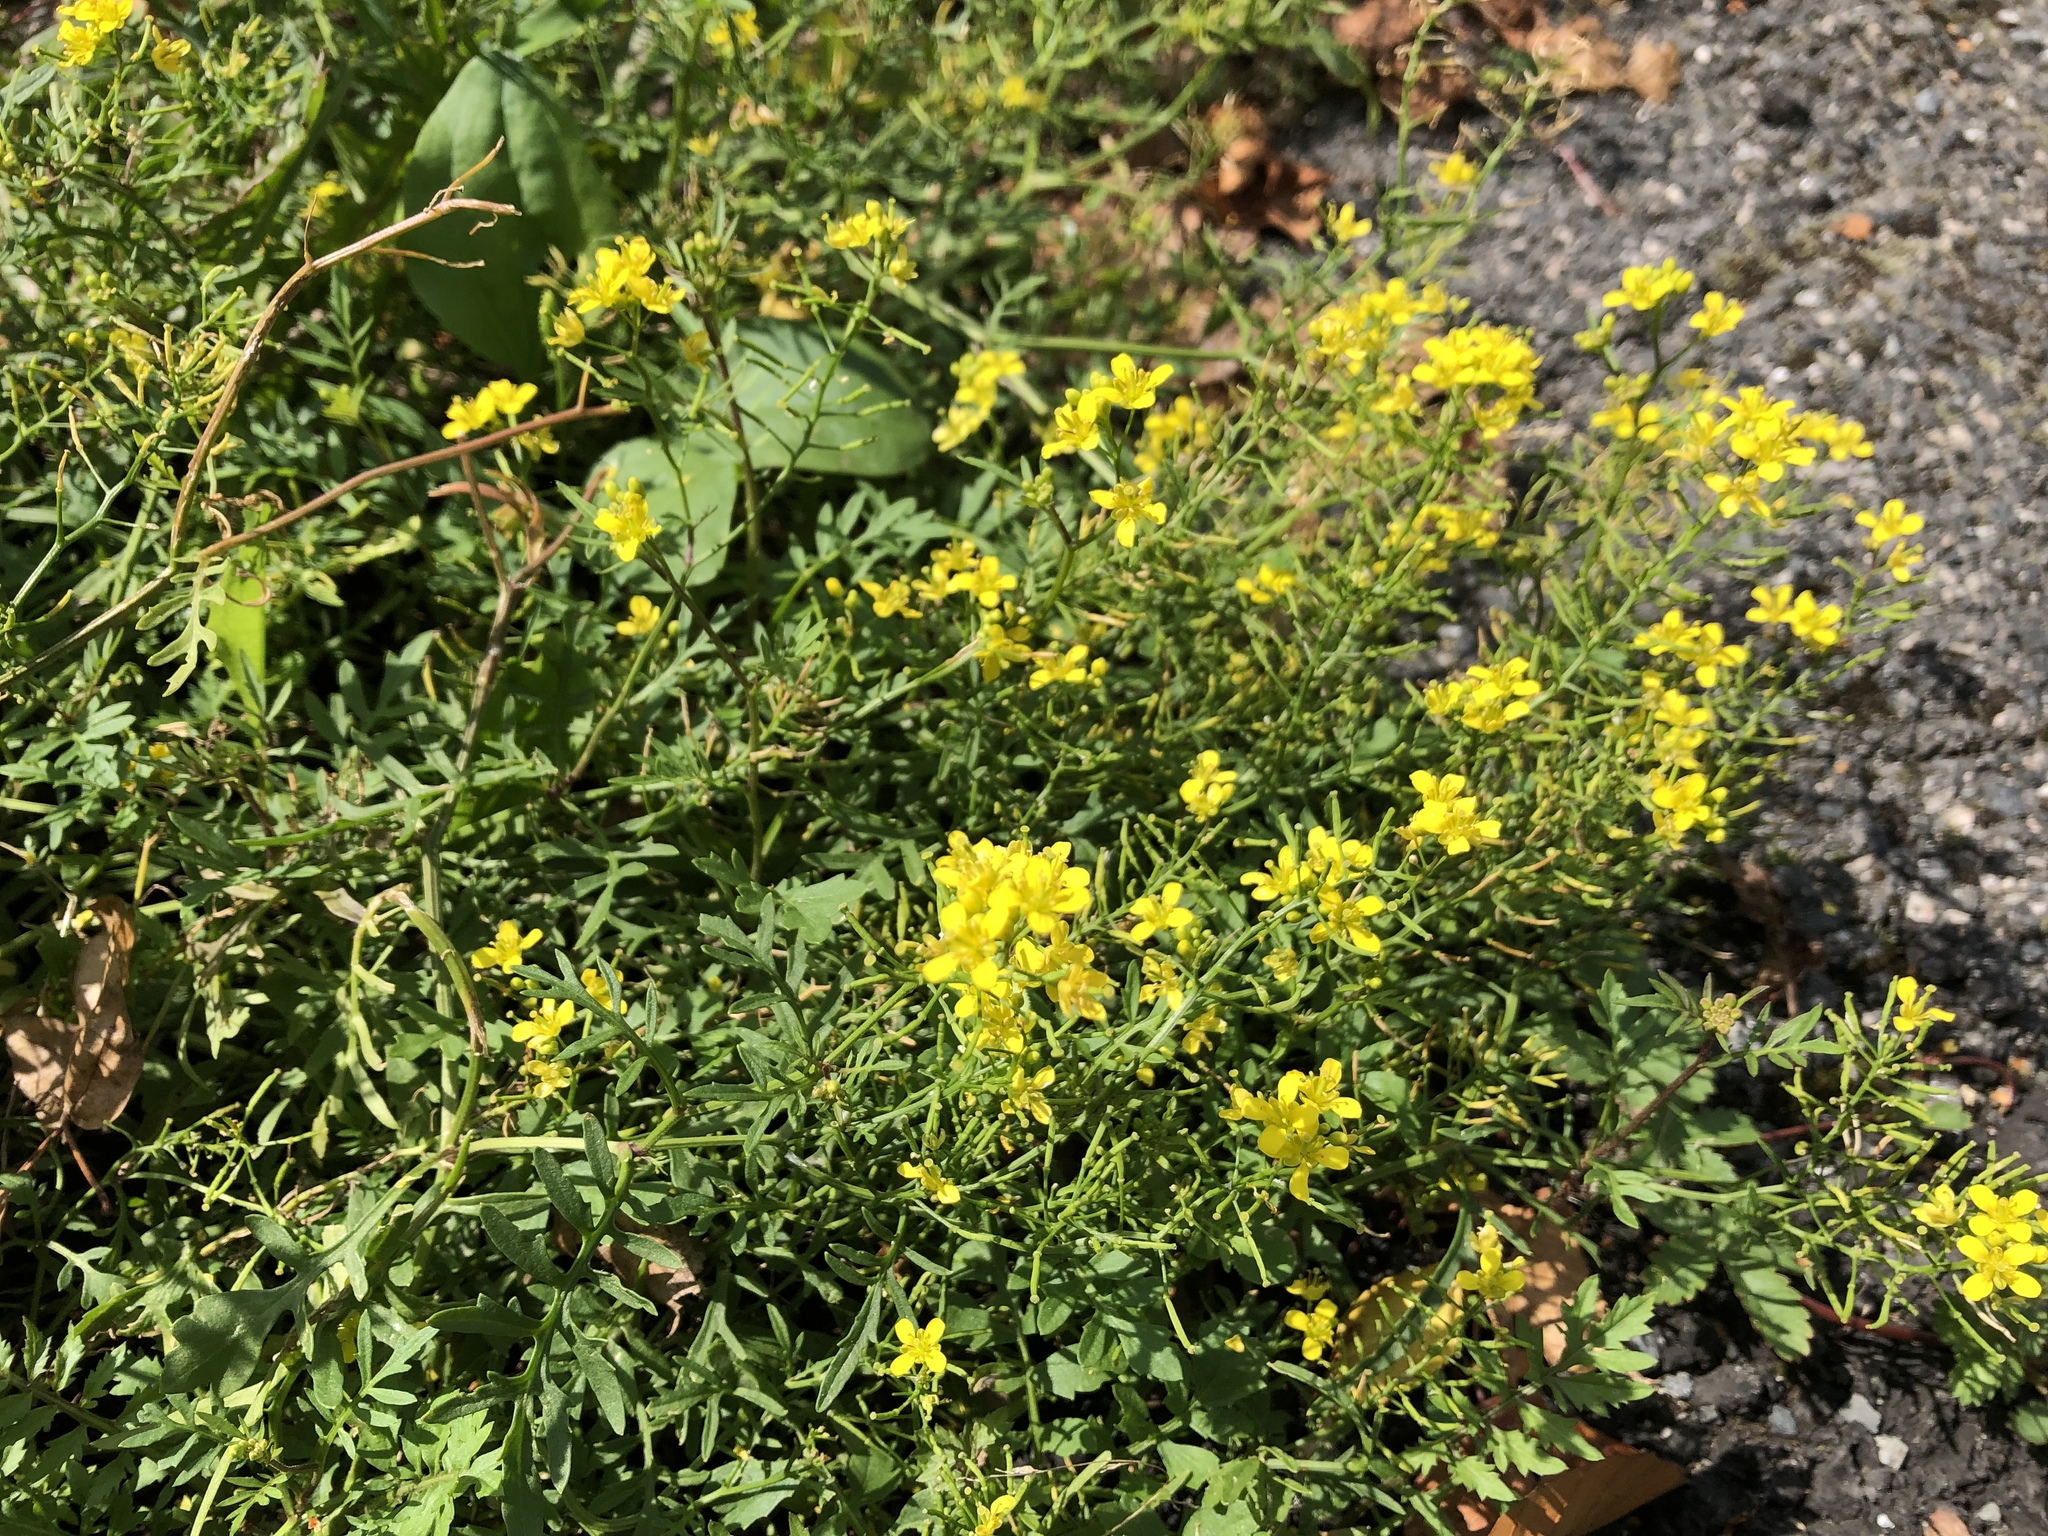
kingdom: Plantae
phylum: Tracheophyta
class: Magnoliopsida
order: Brassicales
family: Brassicaceae
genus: Rorippa
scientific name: Rorippa sylvestris
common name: Creeping yellowcress
